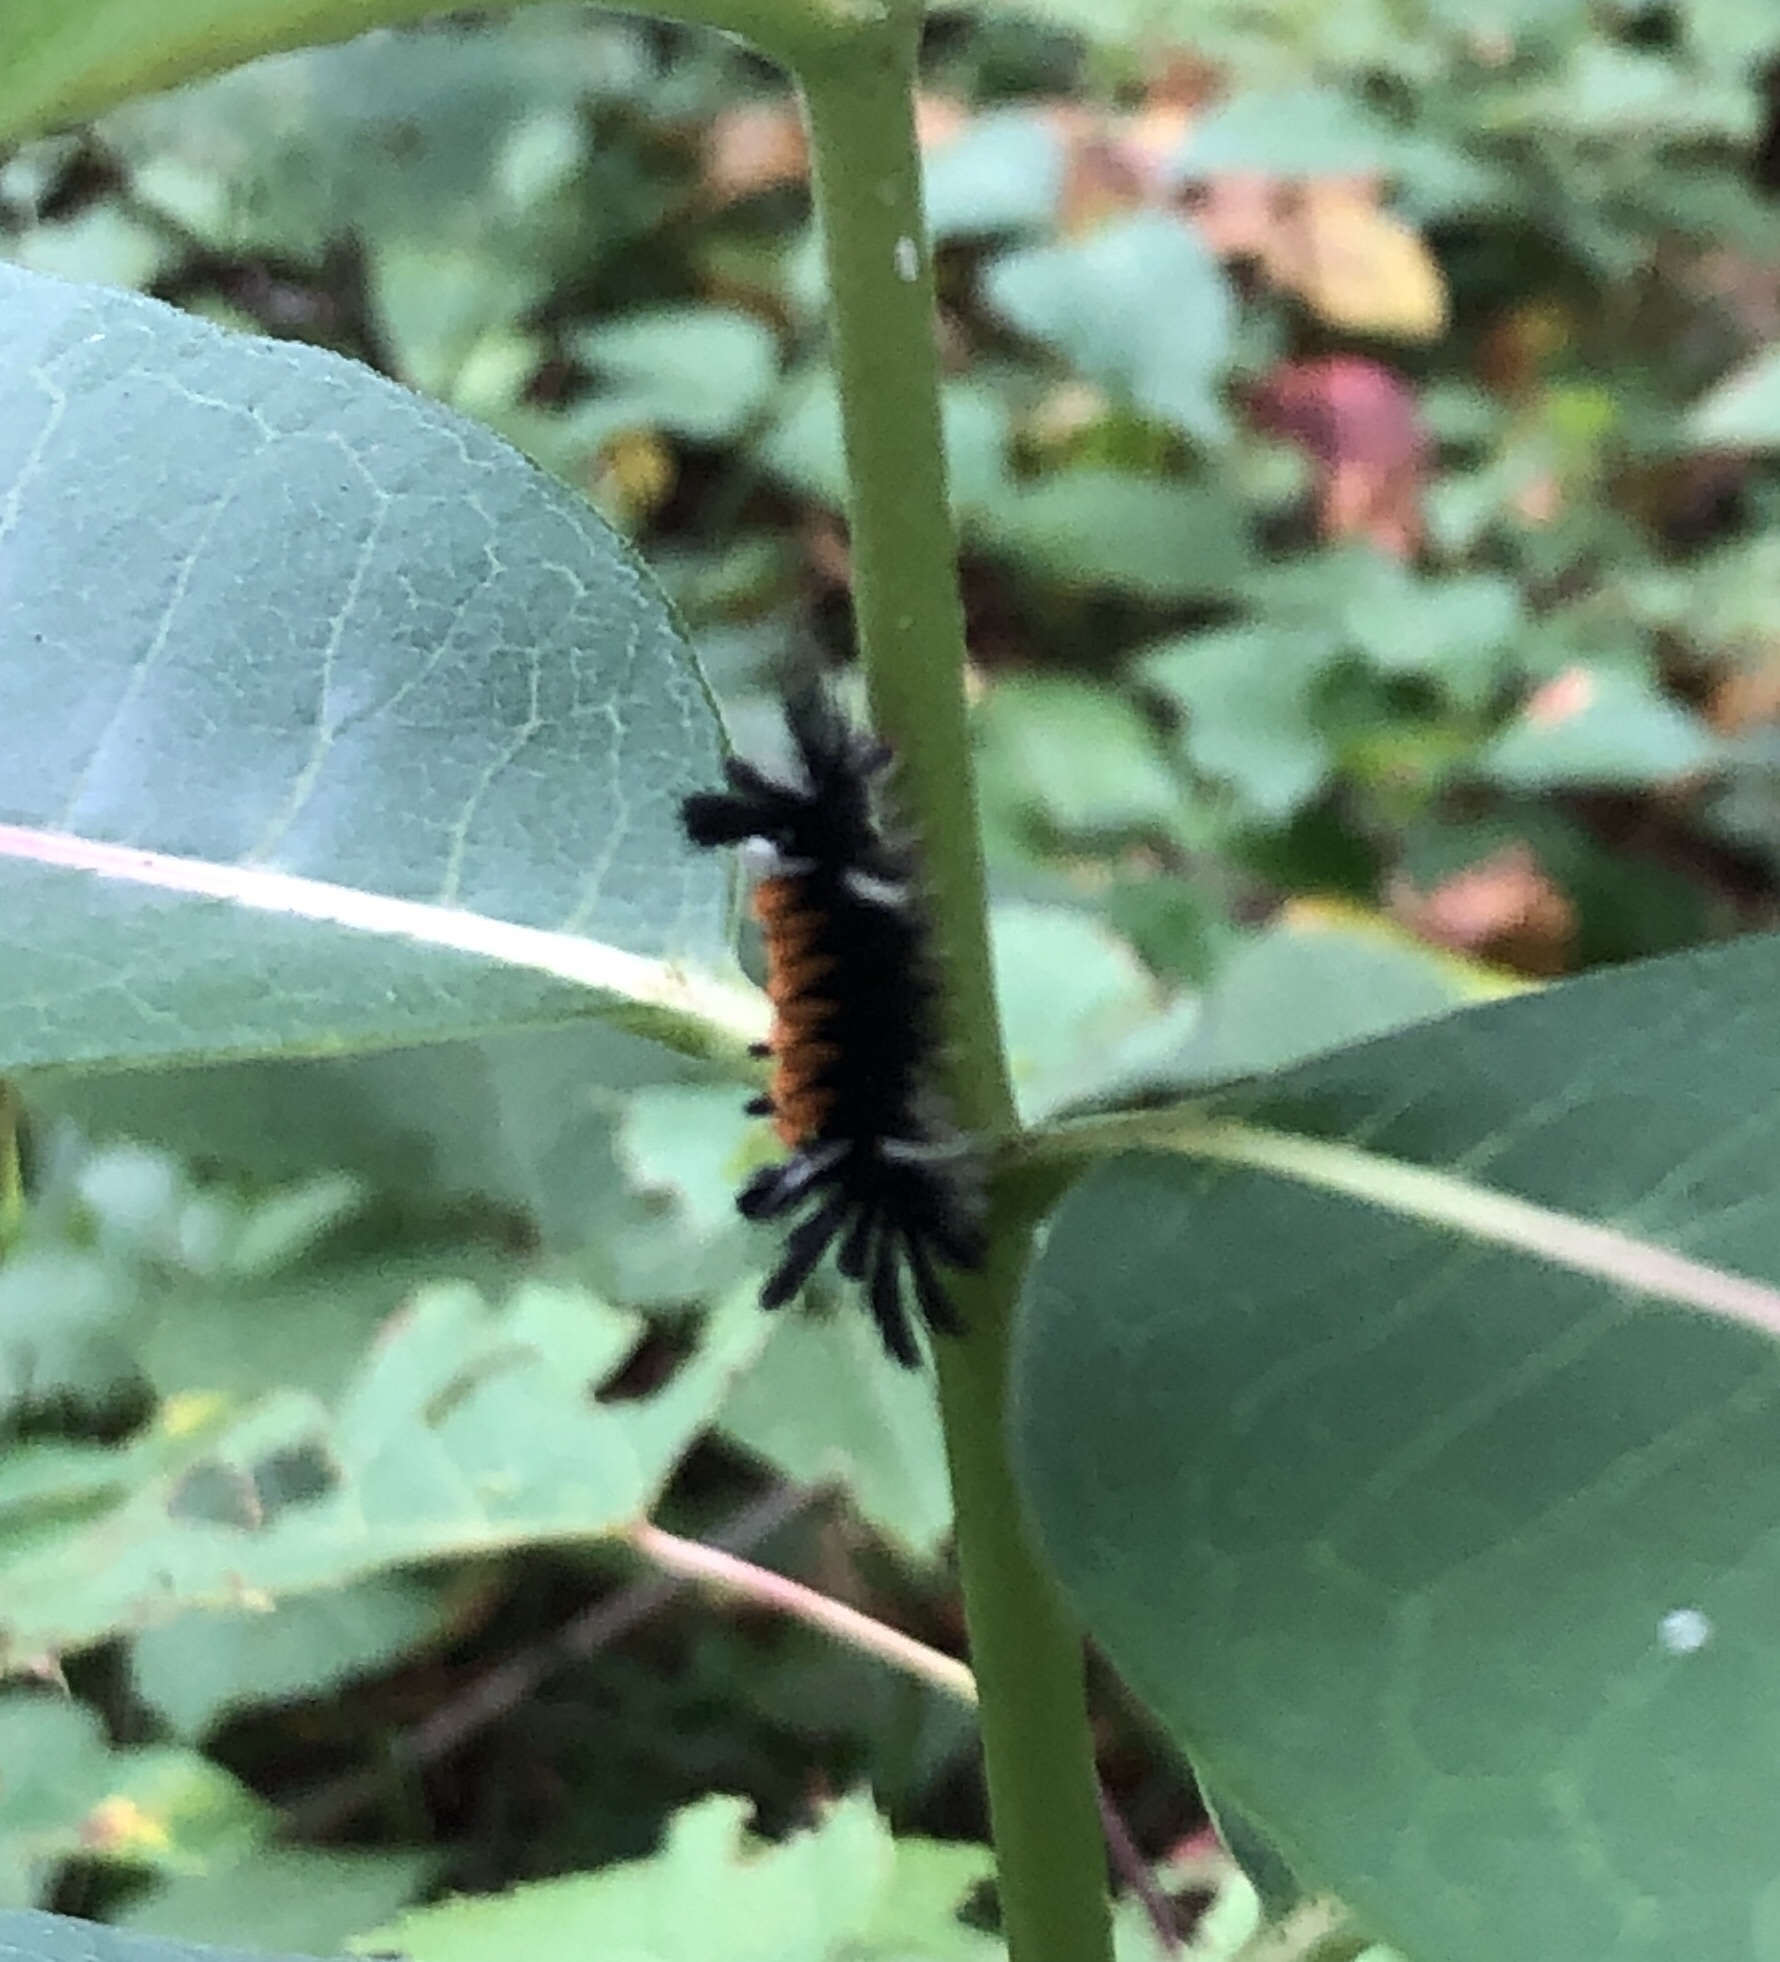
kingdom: Animalia
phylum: Arthropoda
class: Insecta
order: Lepidoptera
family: Erebidae
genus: Euchaetes
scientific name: Euchaetes egle
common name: Milkweed tussock moth
